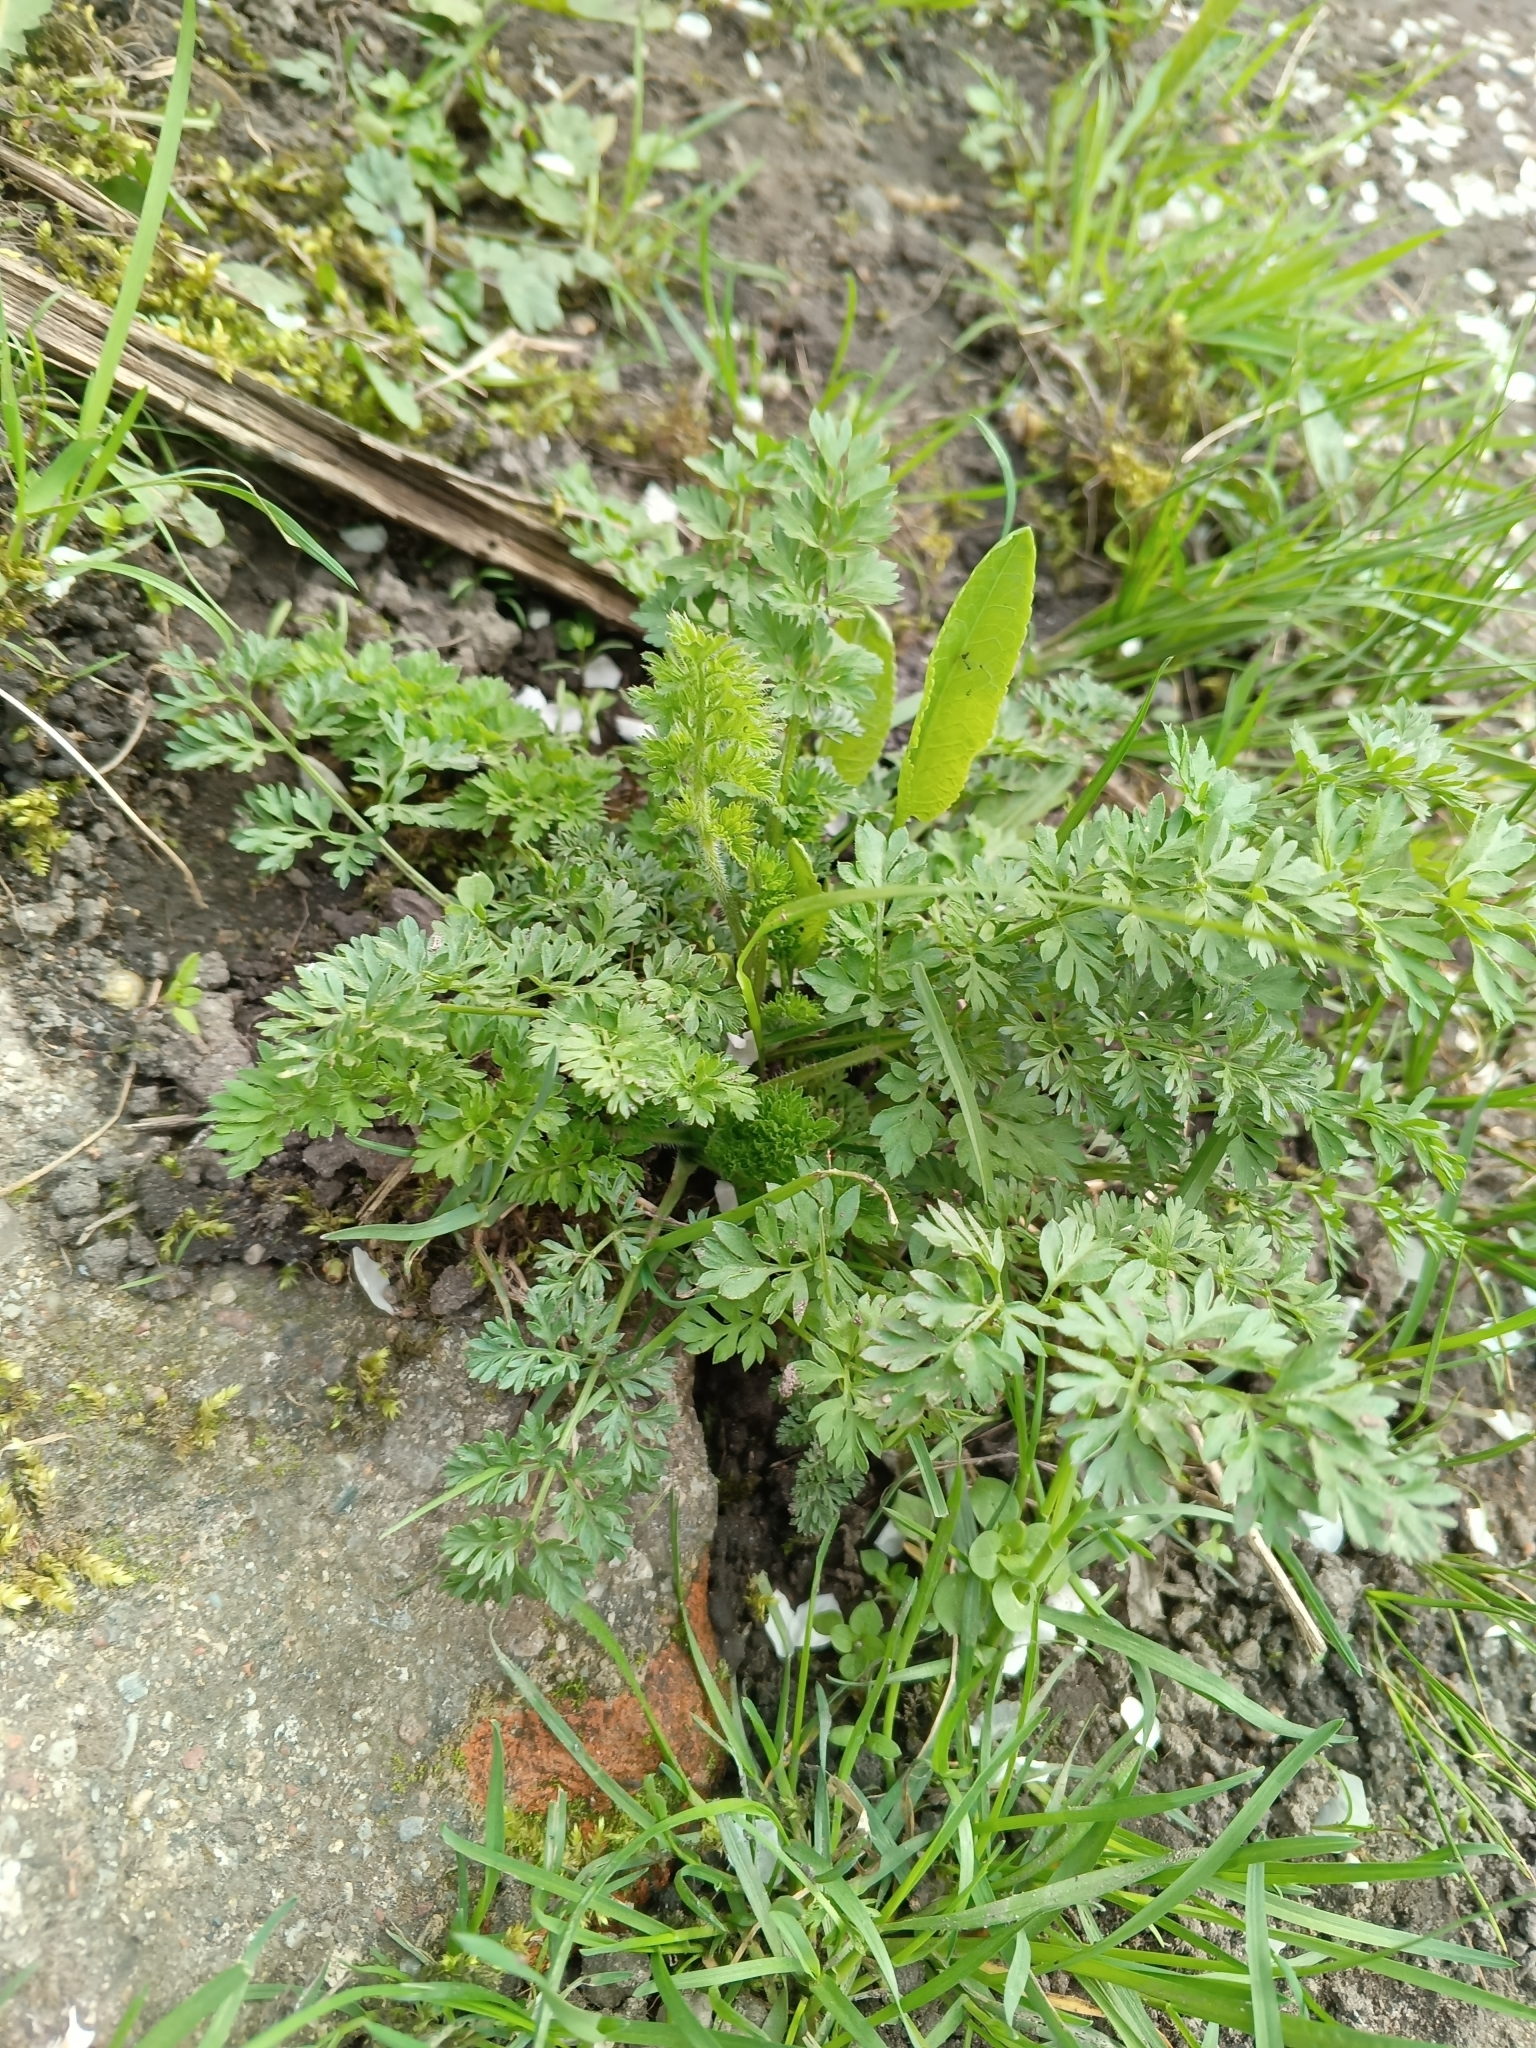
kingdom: Plantae
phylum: Tracheophyta
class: Magnoliopsida
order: Apiales
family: Apiaceae
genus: Daucus
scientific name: Daucus carota
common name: Wild carrot
